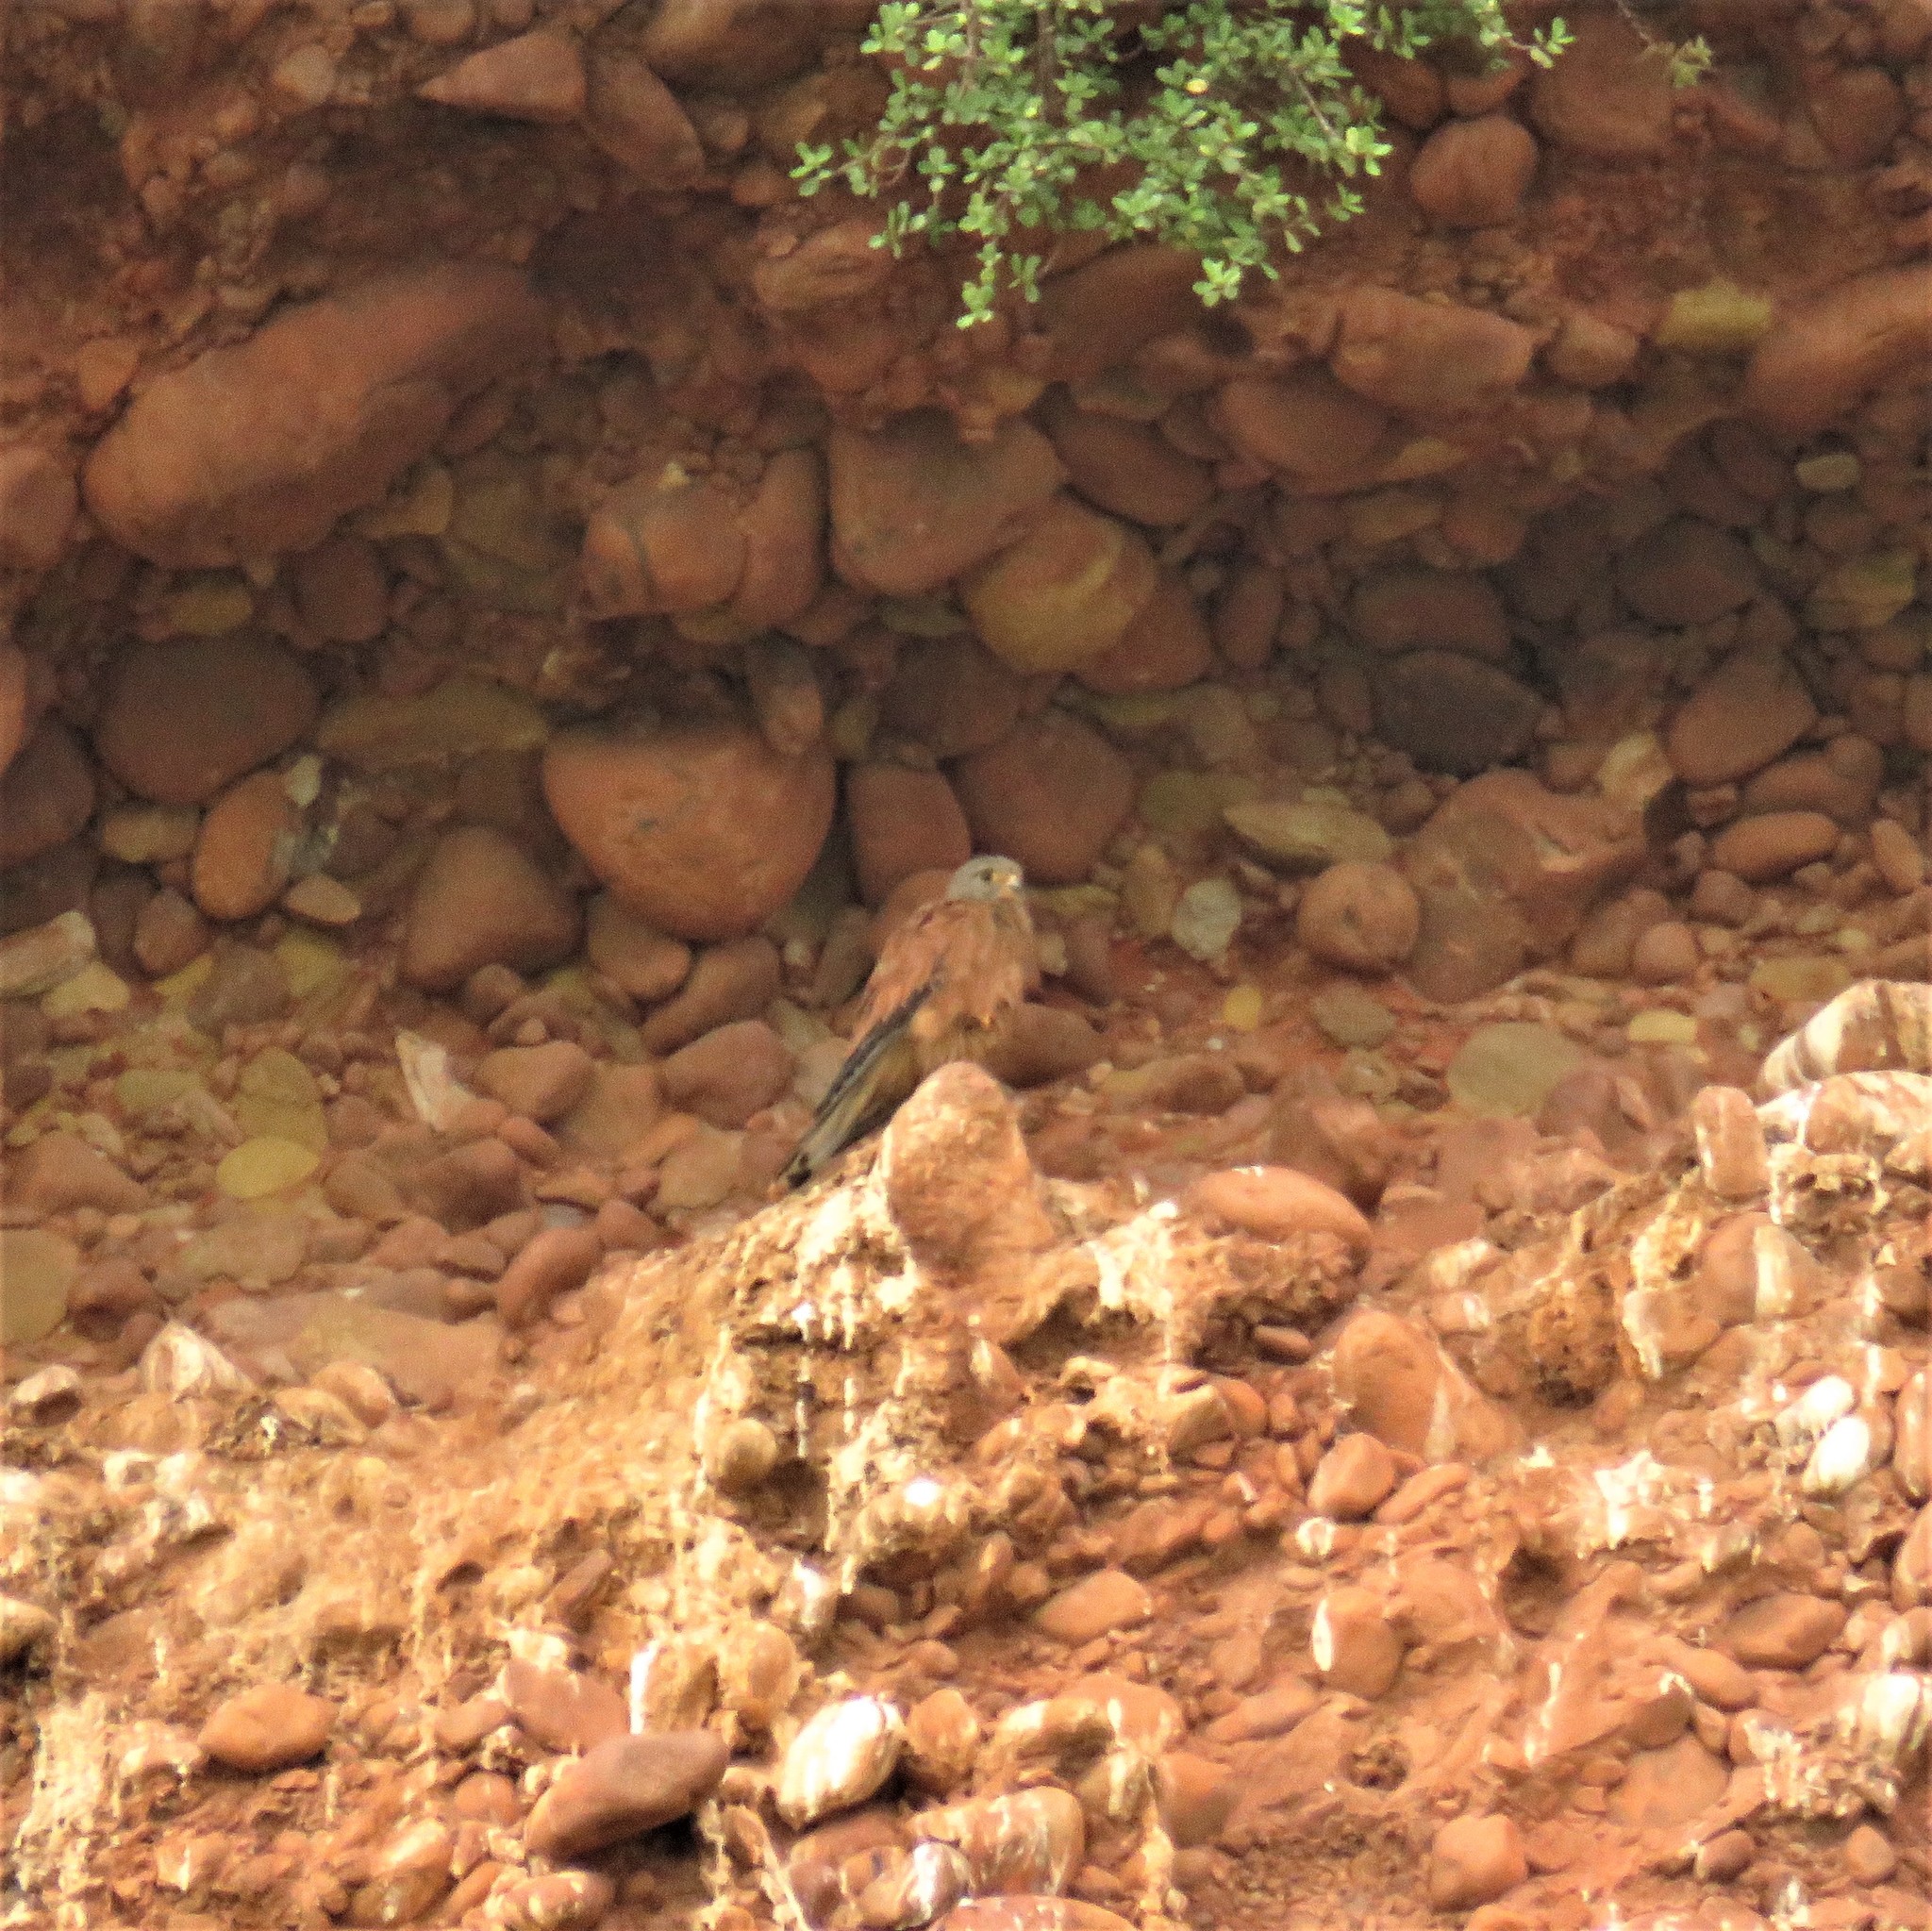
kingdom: Animalia
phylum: Chordata
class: Aves
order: Falconiformes
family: Falconidae
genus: Falco
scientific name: Falco rupicolus
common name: Rock kestrel
